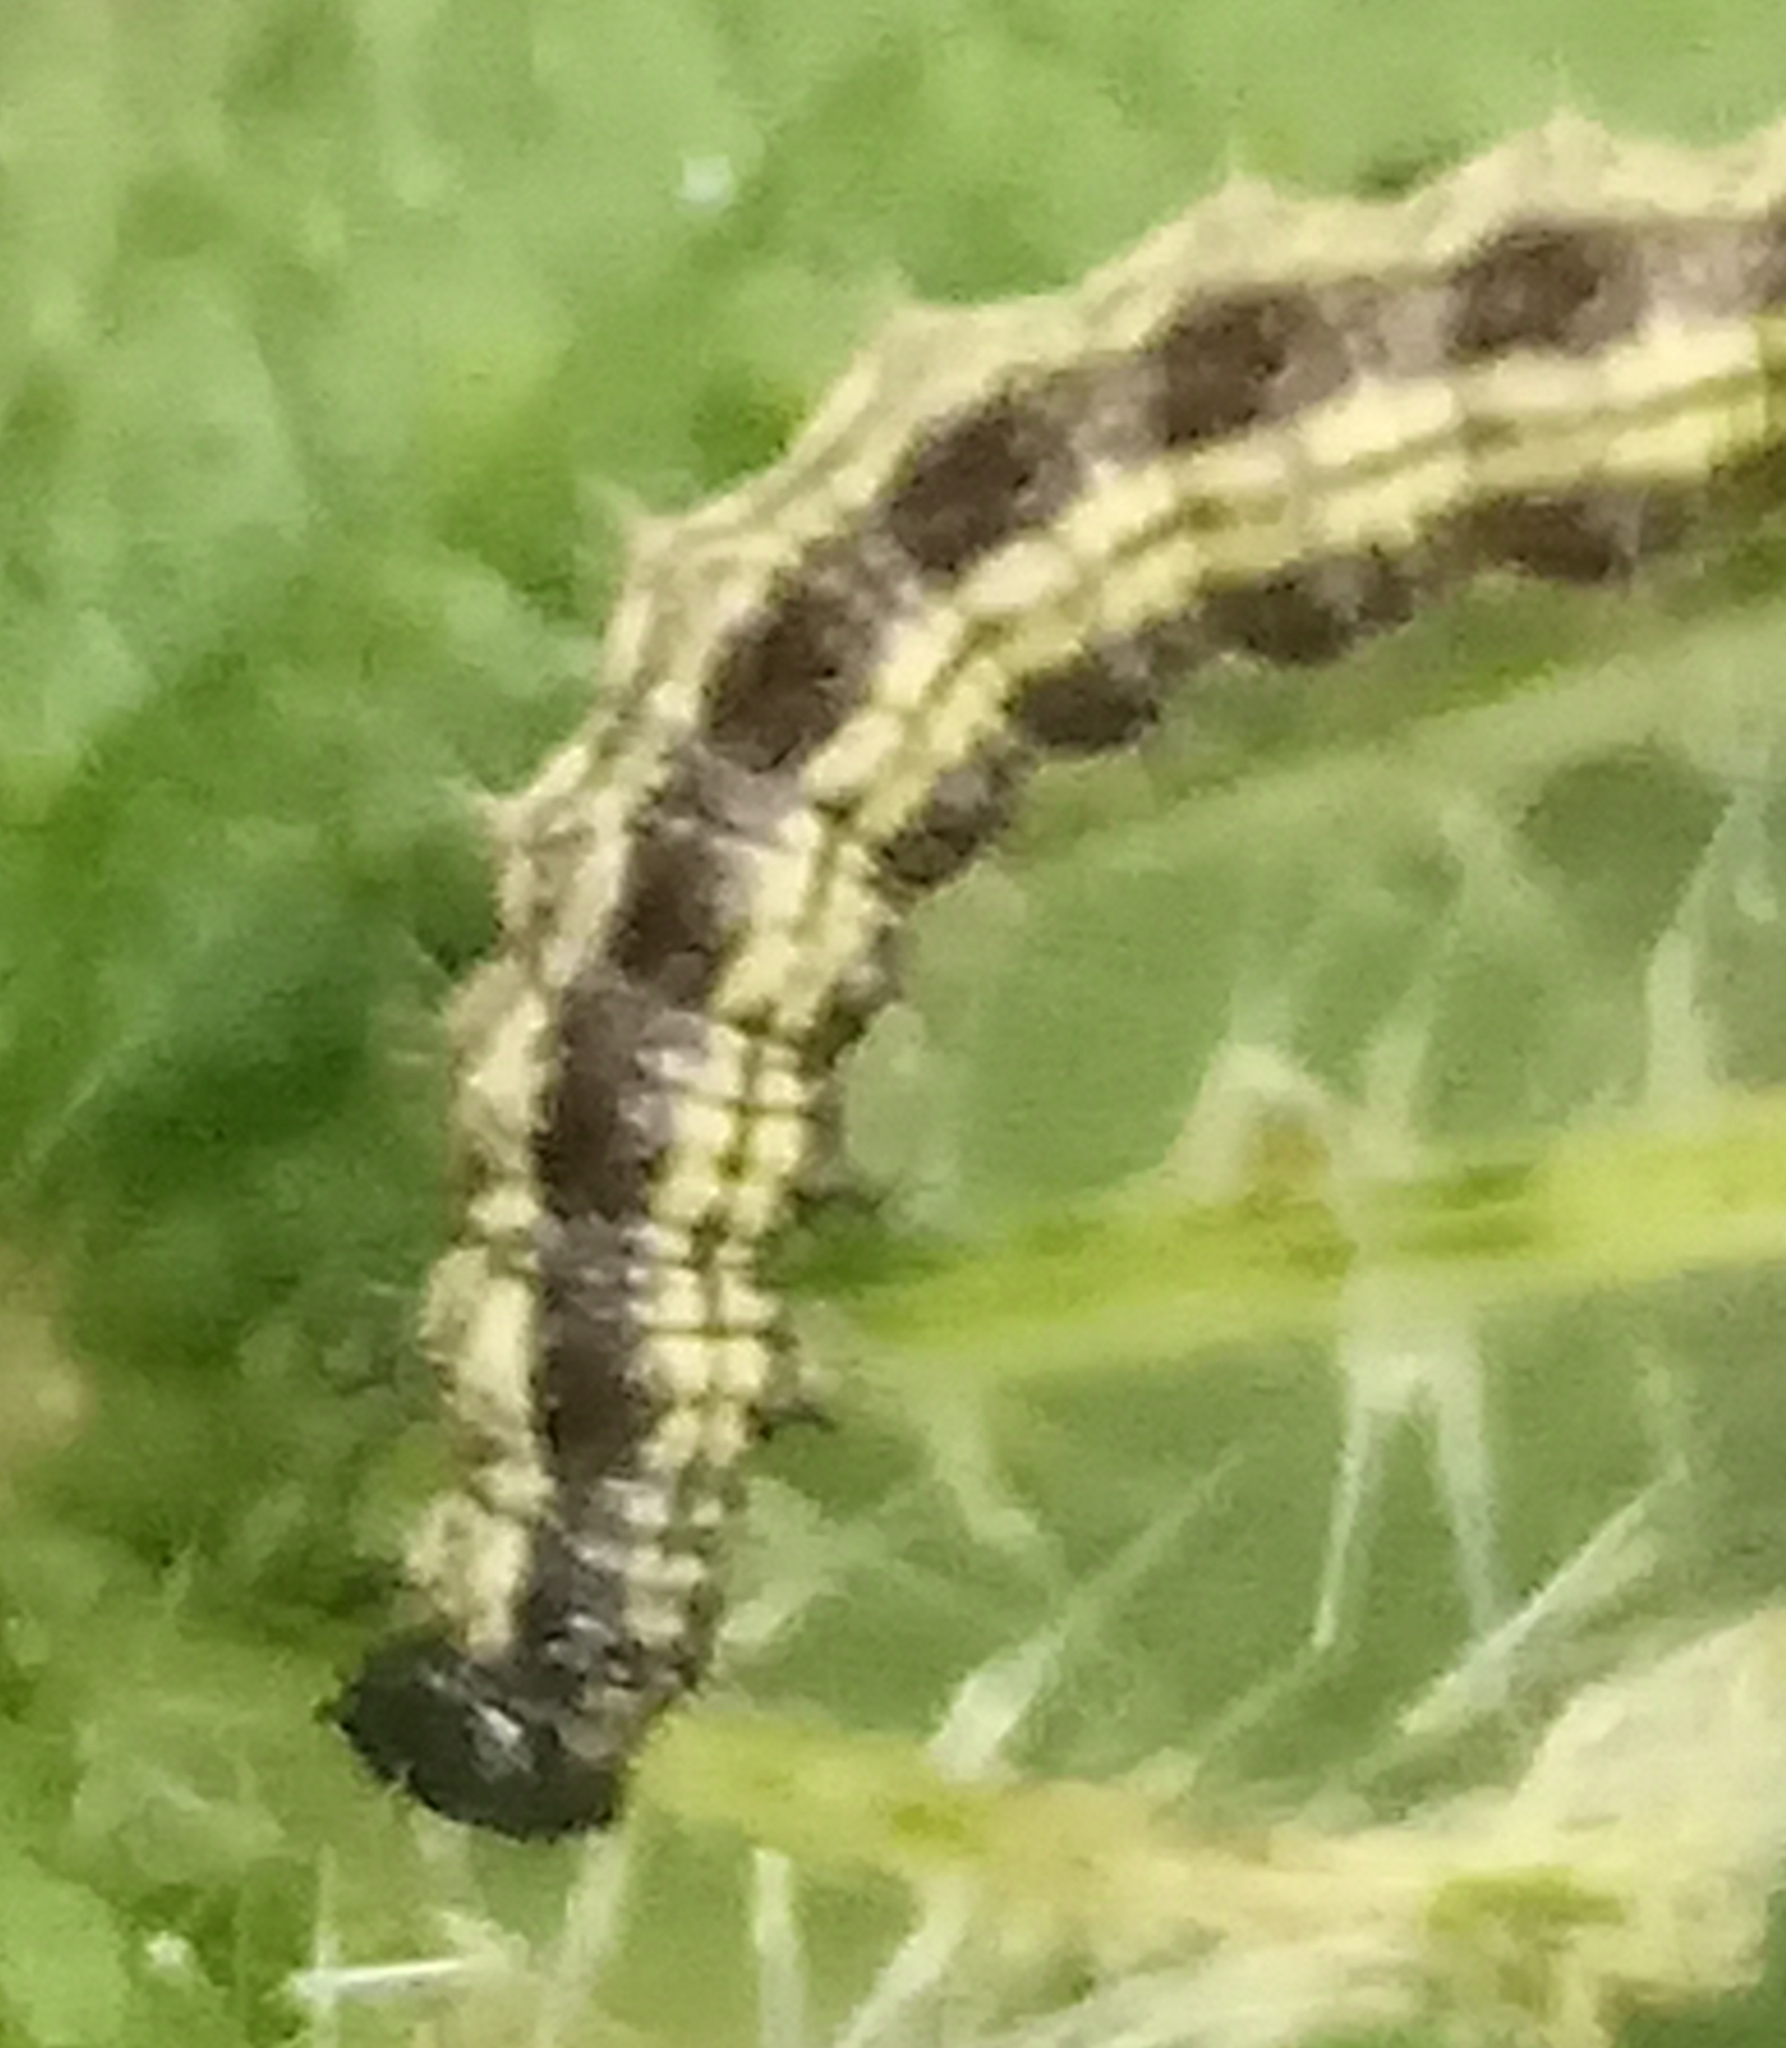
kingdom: Animalia
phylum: Arthropoda
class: Insecta
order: Lepidoptera
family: Nymphalidae
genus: Aglais
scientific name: Aglais urticae
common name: Small tortoiseshell
